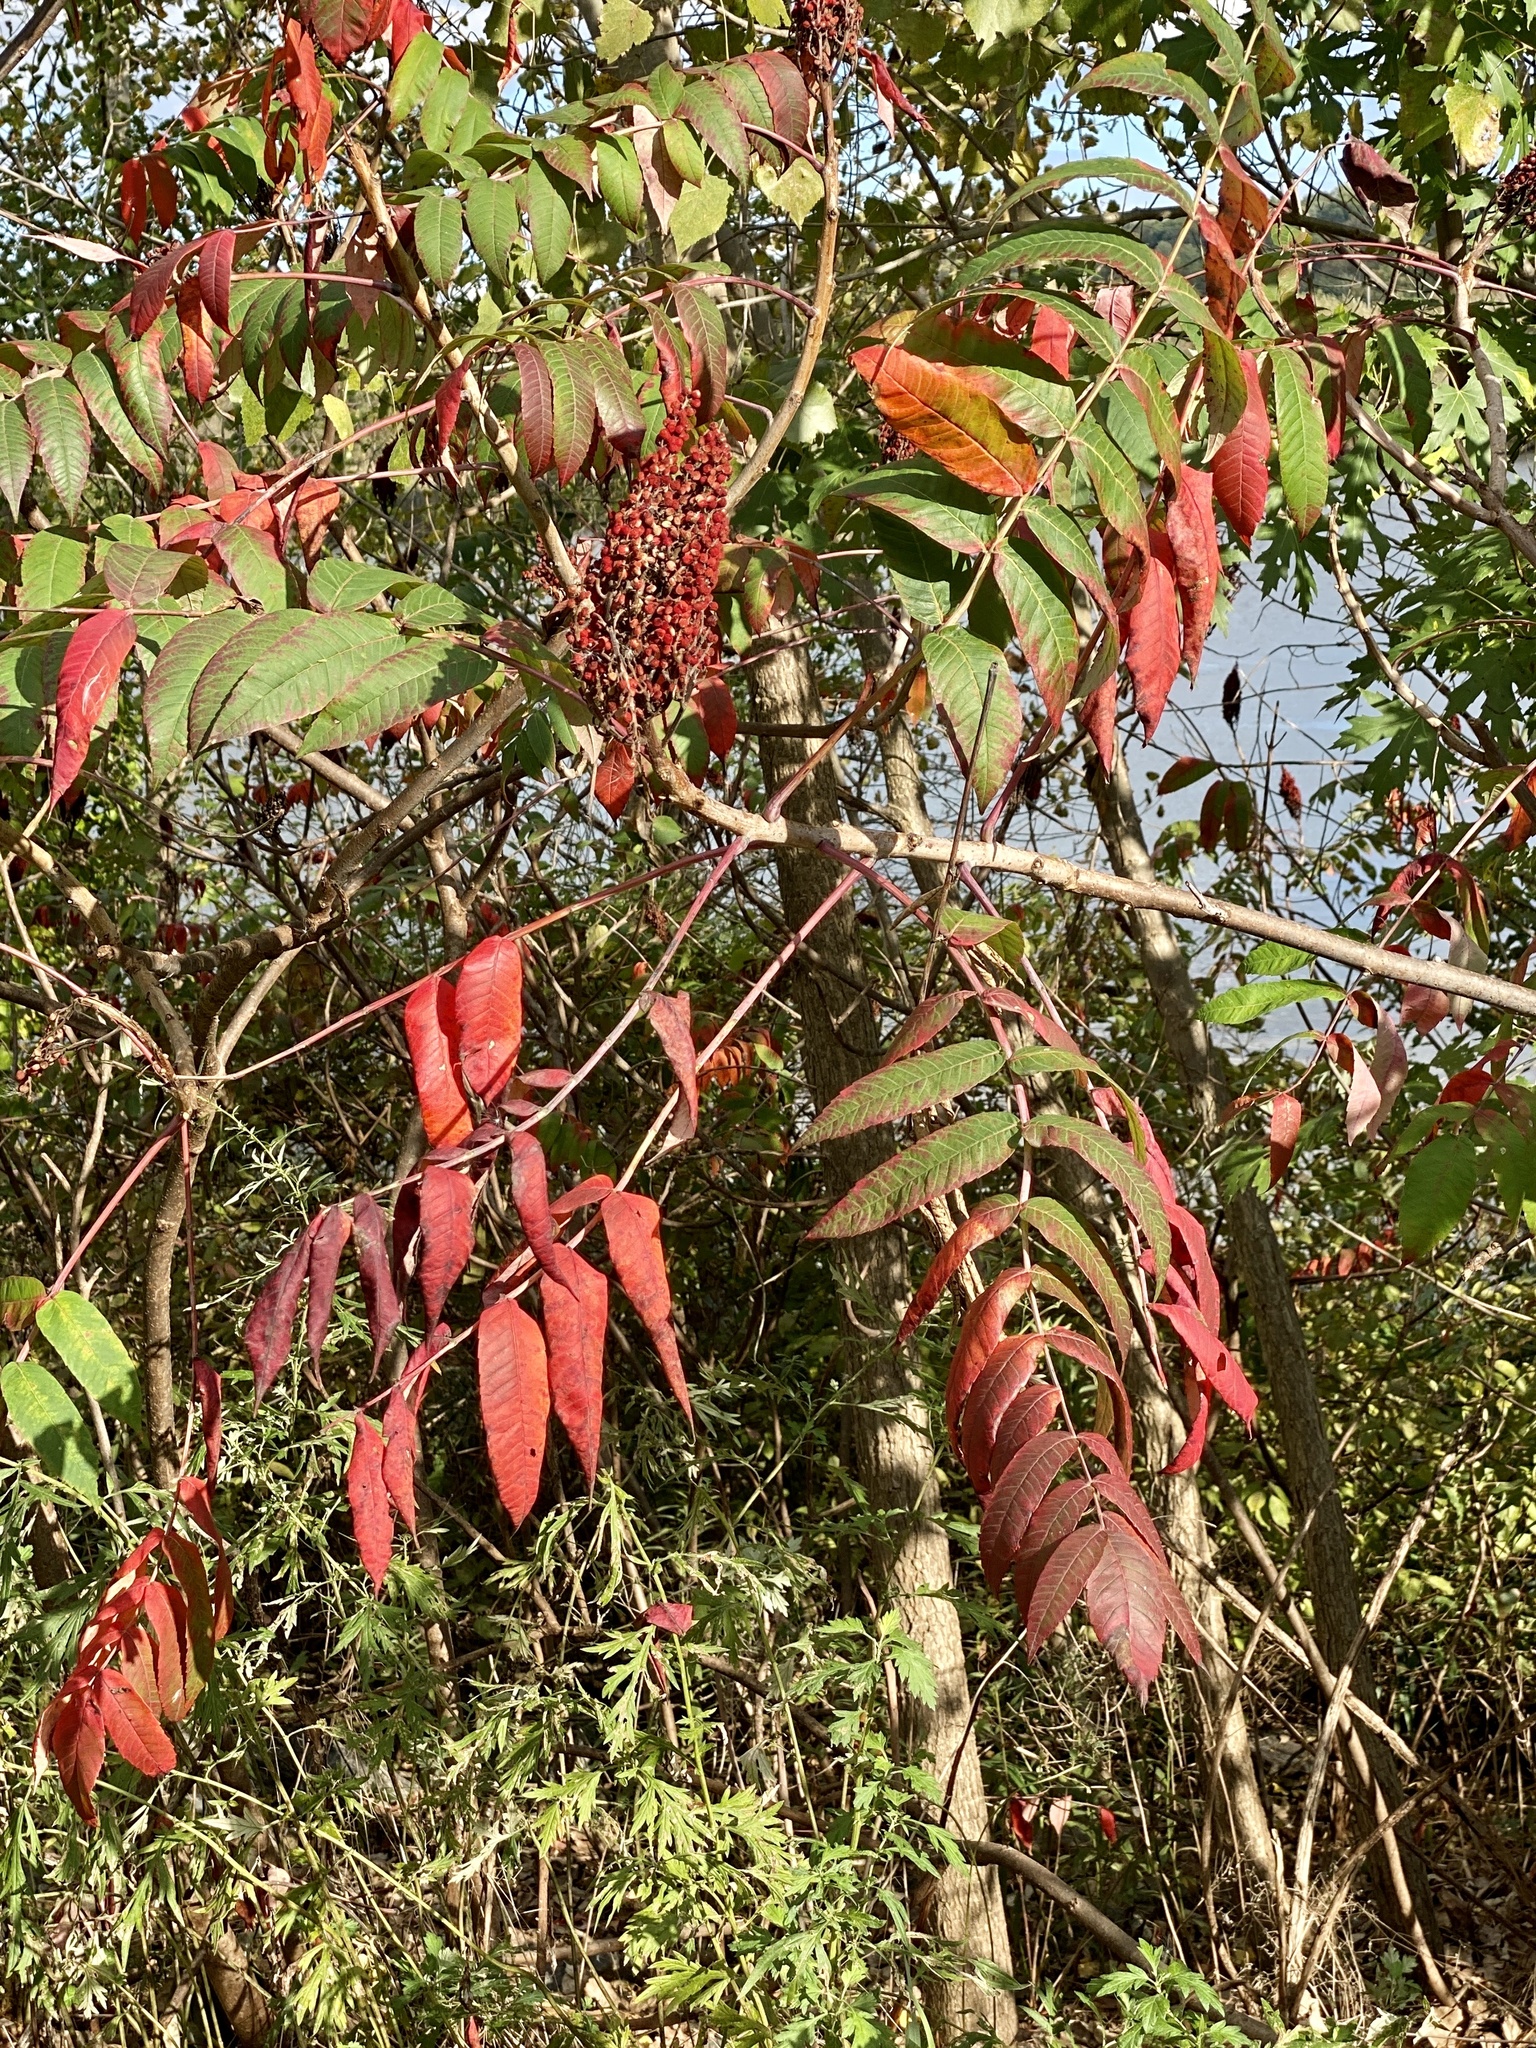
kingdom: Plantae
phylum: Tracheophyta
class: Magnoliopsida
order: Sapindales
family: Anacardiaceae
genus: Rhus
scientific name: Rhus glabra
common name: Scarlet sumac
